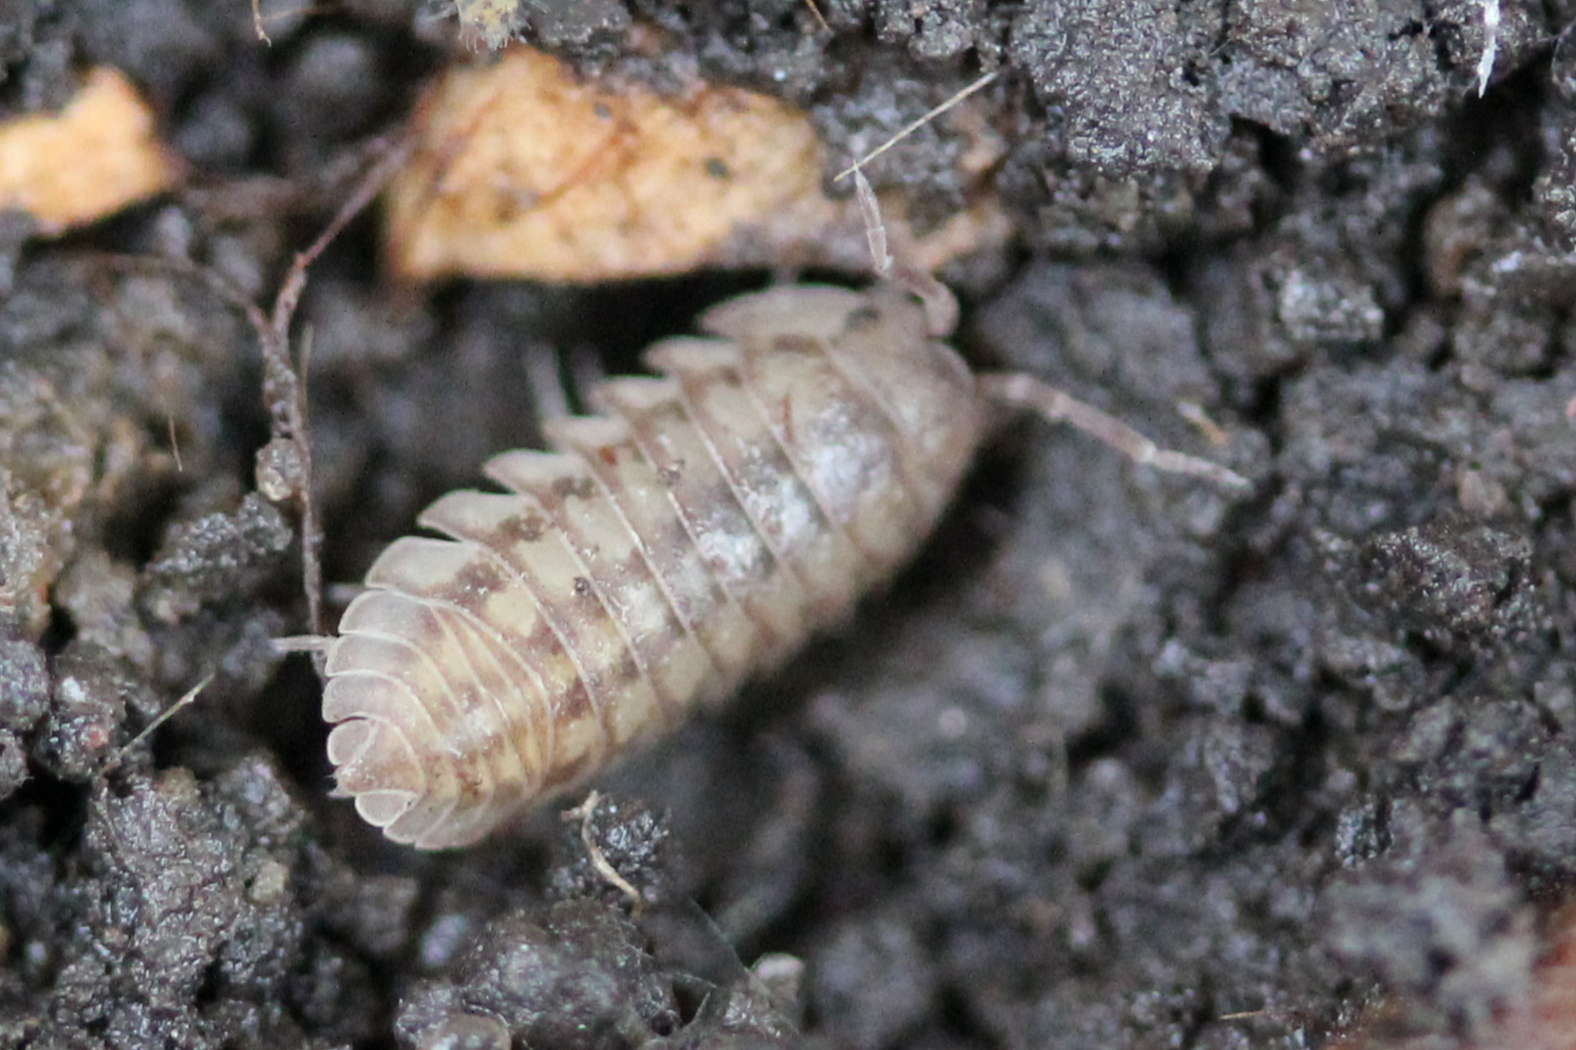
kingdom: Animalia
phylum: Arthropoda
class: Malacostraca
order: Isopoda
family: Armadillidiidae
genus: Armadillidium
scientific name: Armadillidium nasatum
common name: Isopod
